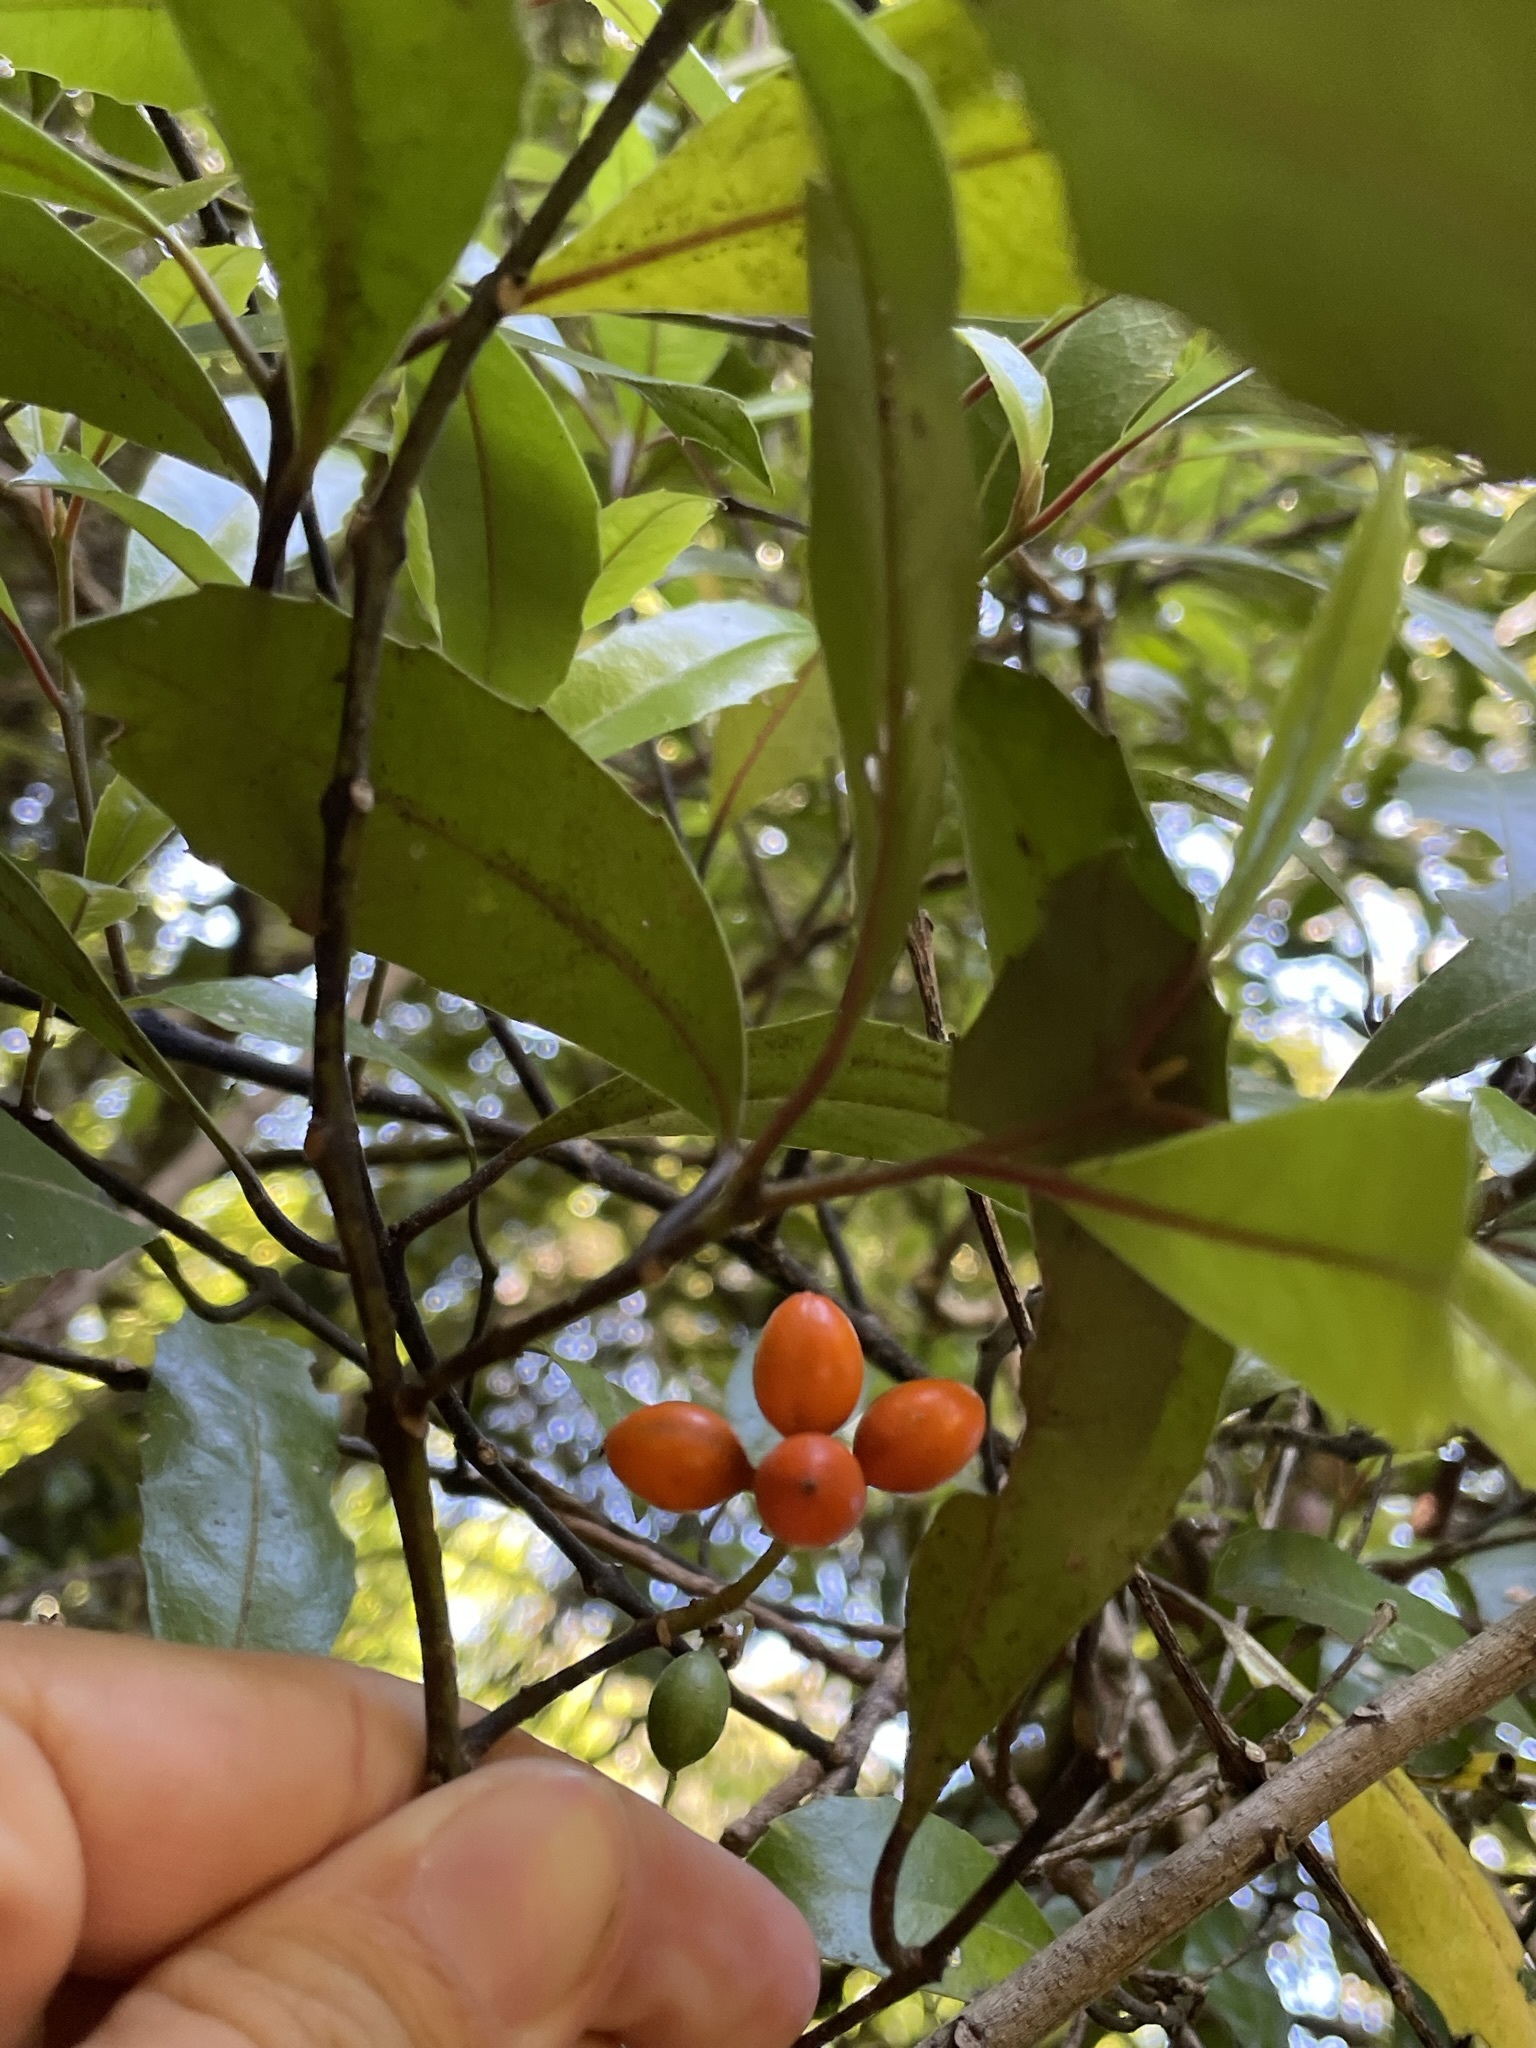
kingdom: Plantae
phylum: Tracheophyta
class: Magnoliopsida
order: Laurales
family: Monimiaceae
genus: Hedycarya
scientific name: Hedycarya arborea
